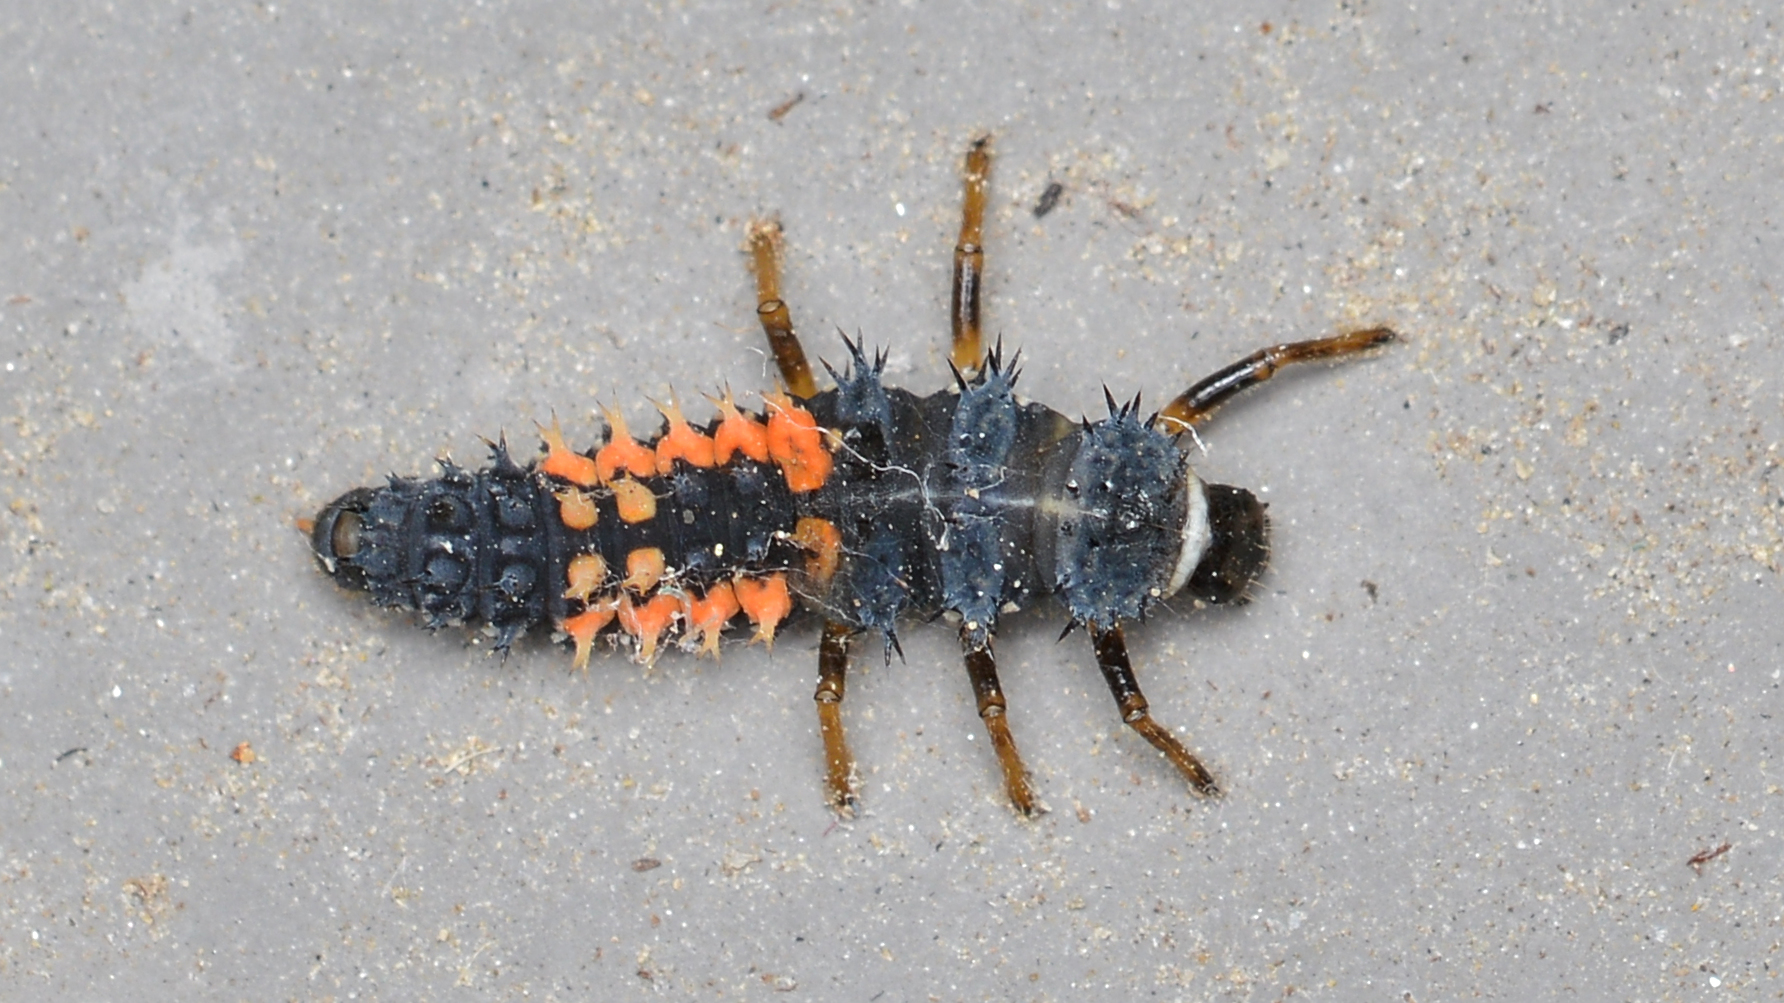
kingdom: Animalia
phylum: Arthropoda
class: Insecta
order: Coleoptera
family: Coccinellidae
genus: Harmonia
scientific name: Harmonia axyridis
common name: Harlequin ladybird
